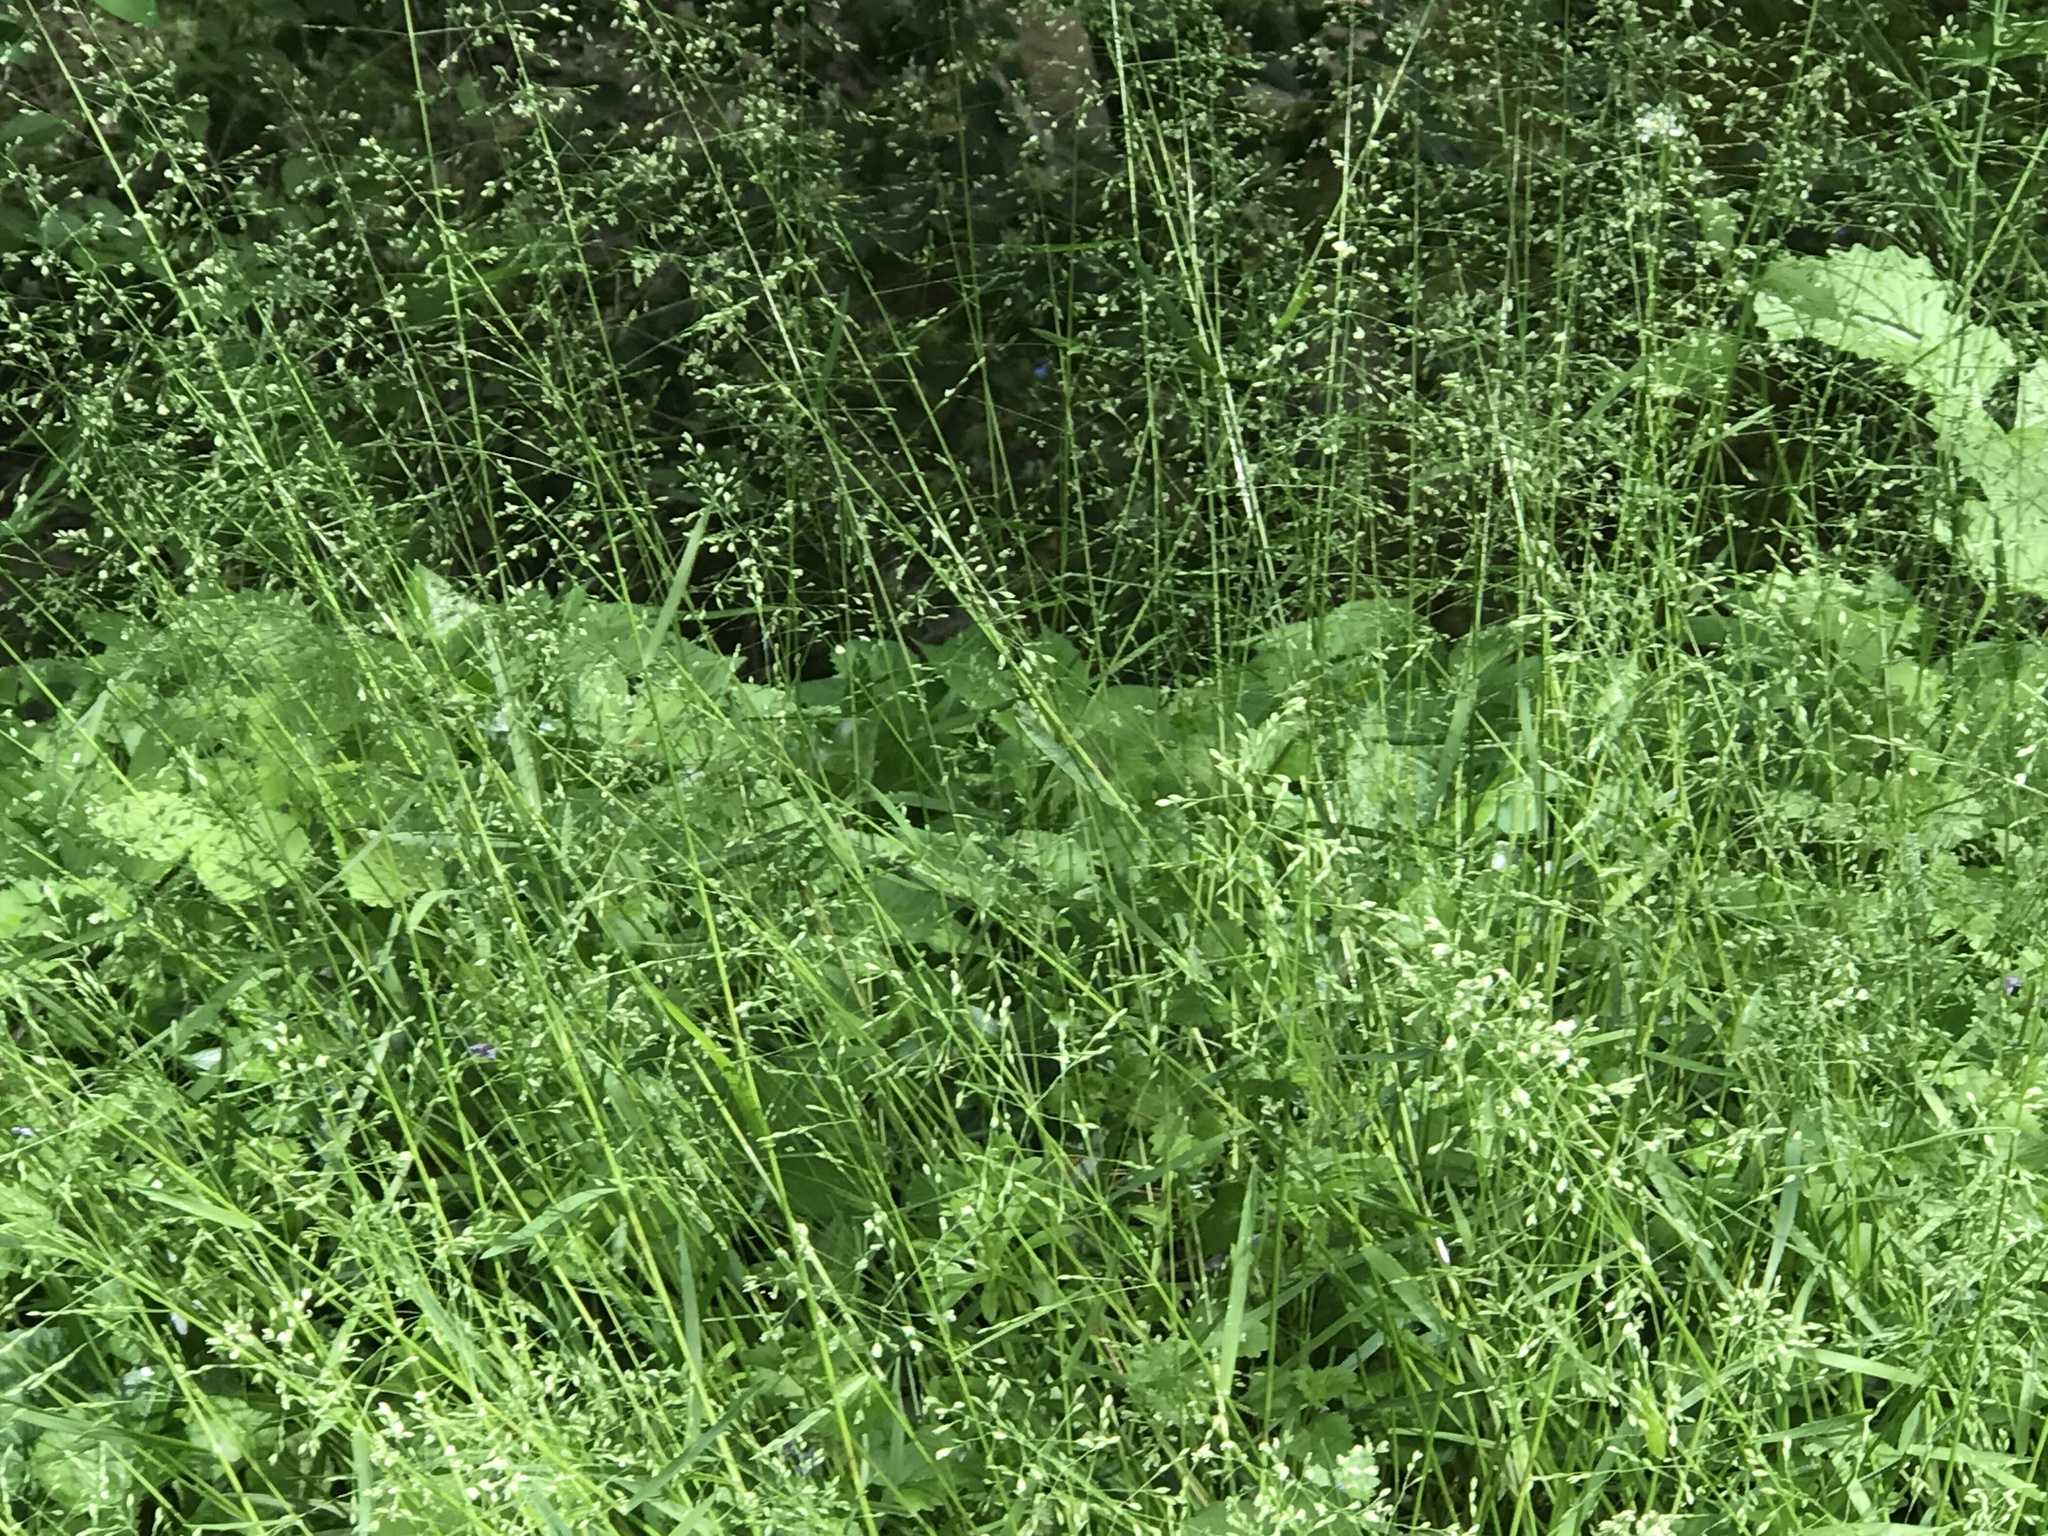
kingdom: Plantae
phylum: Tracheophyta
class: Liliopsida
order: Poales
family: Poaceae
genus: Poa
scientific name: Poa pratensis
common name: Kentucky bluegrass
